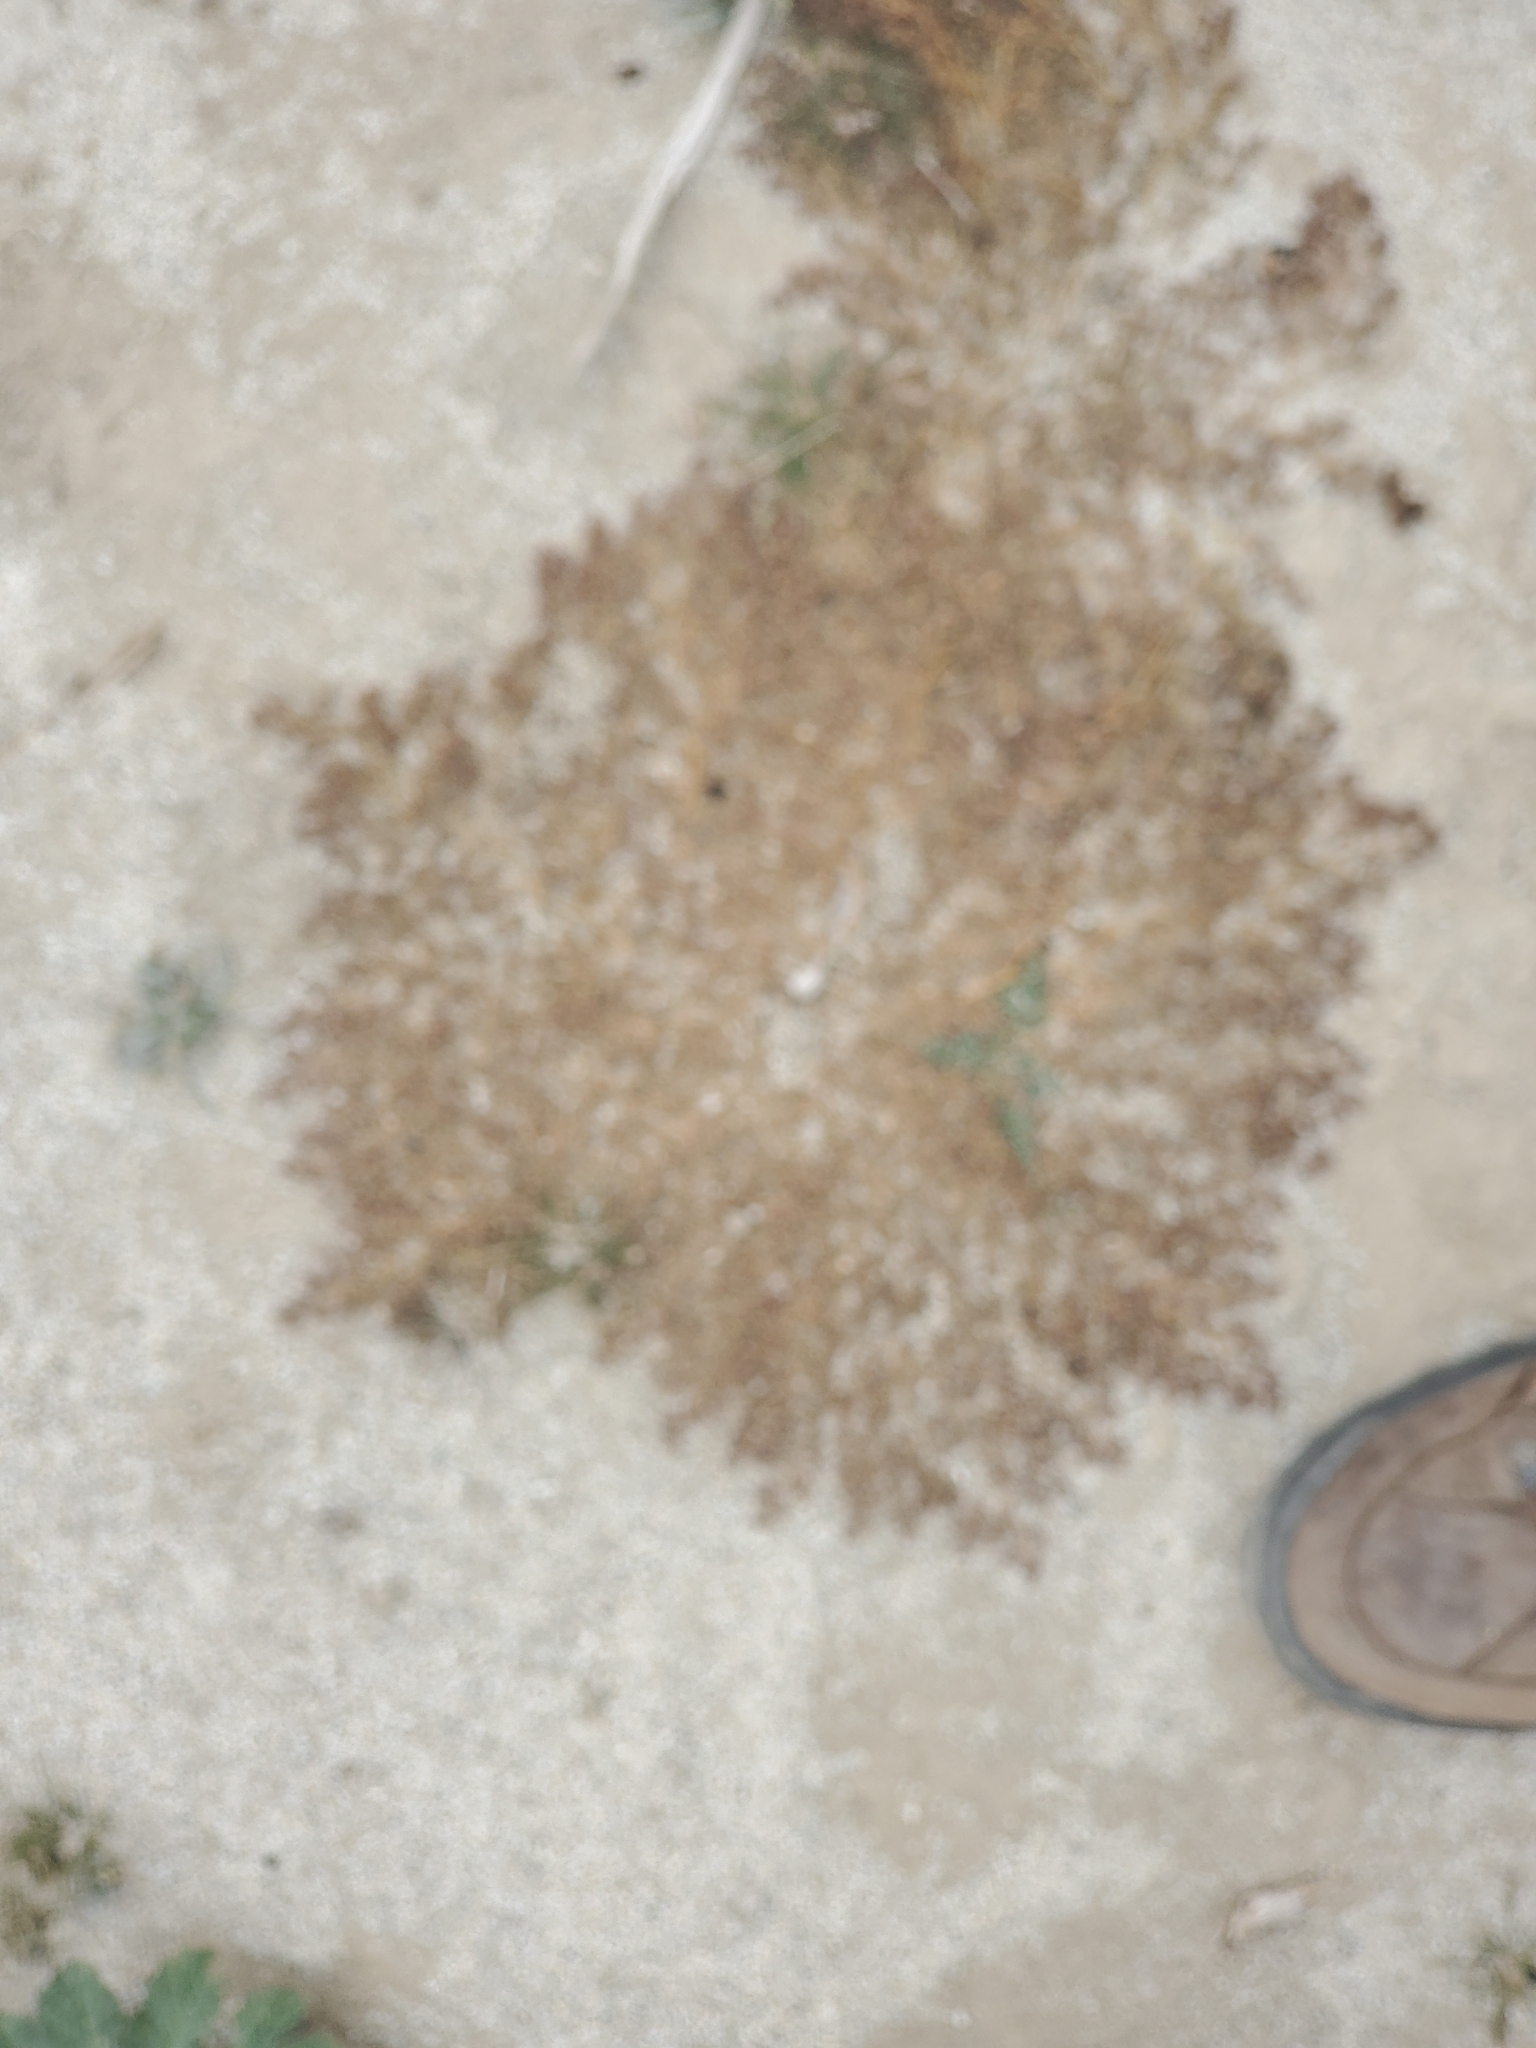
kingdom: Plantae
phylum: Tracheophyta
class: Magnoliopsida
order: Caryophyllales
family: Caryophyllaceae
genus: Achyronychia
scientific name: Achyronychia cooperi
